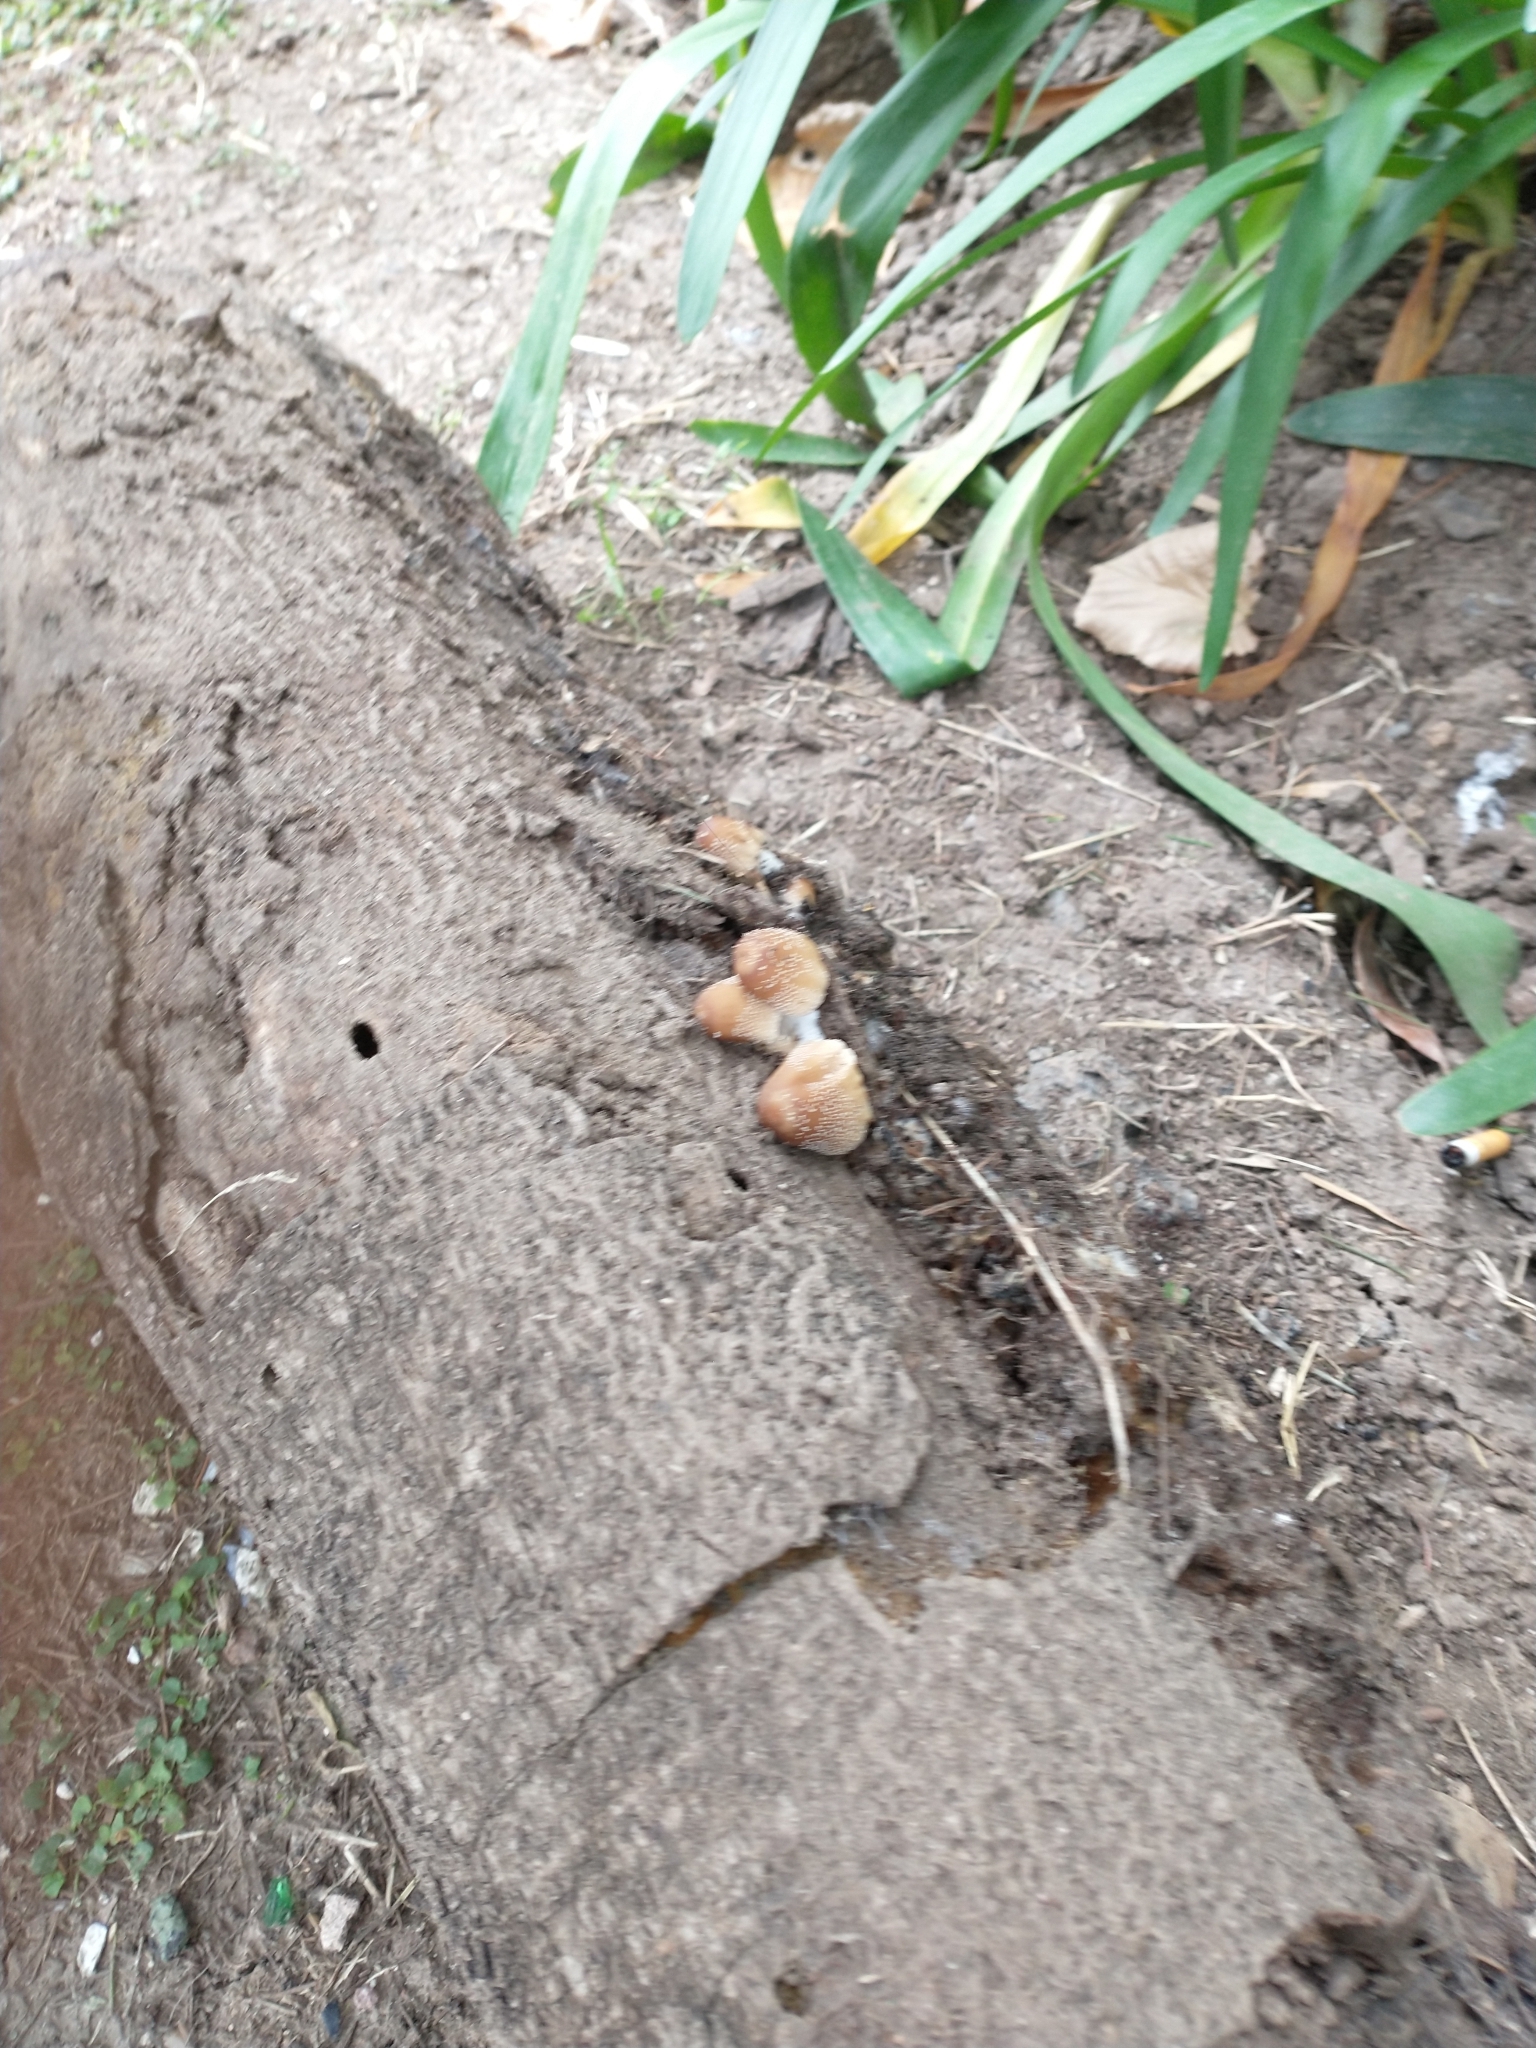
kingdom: Fungi
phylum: Basidiomycota
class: Agaricomycetes
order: Agaricales
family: Psathyrellaceae
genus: Coprinellus
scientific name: Coprinellus domesticus
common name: Firerug inkcap
